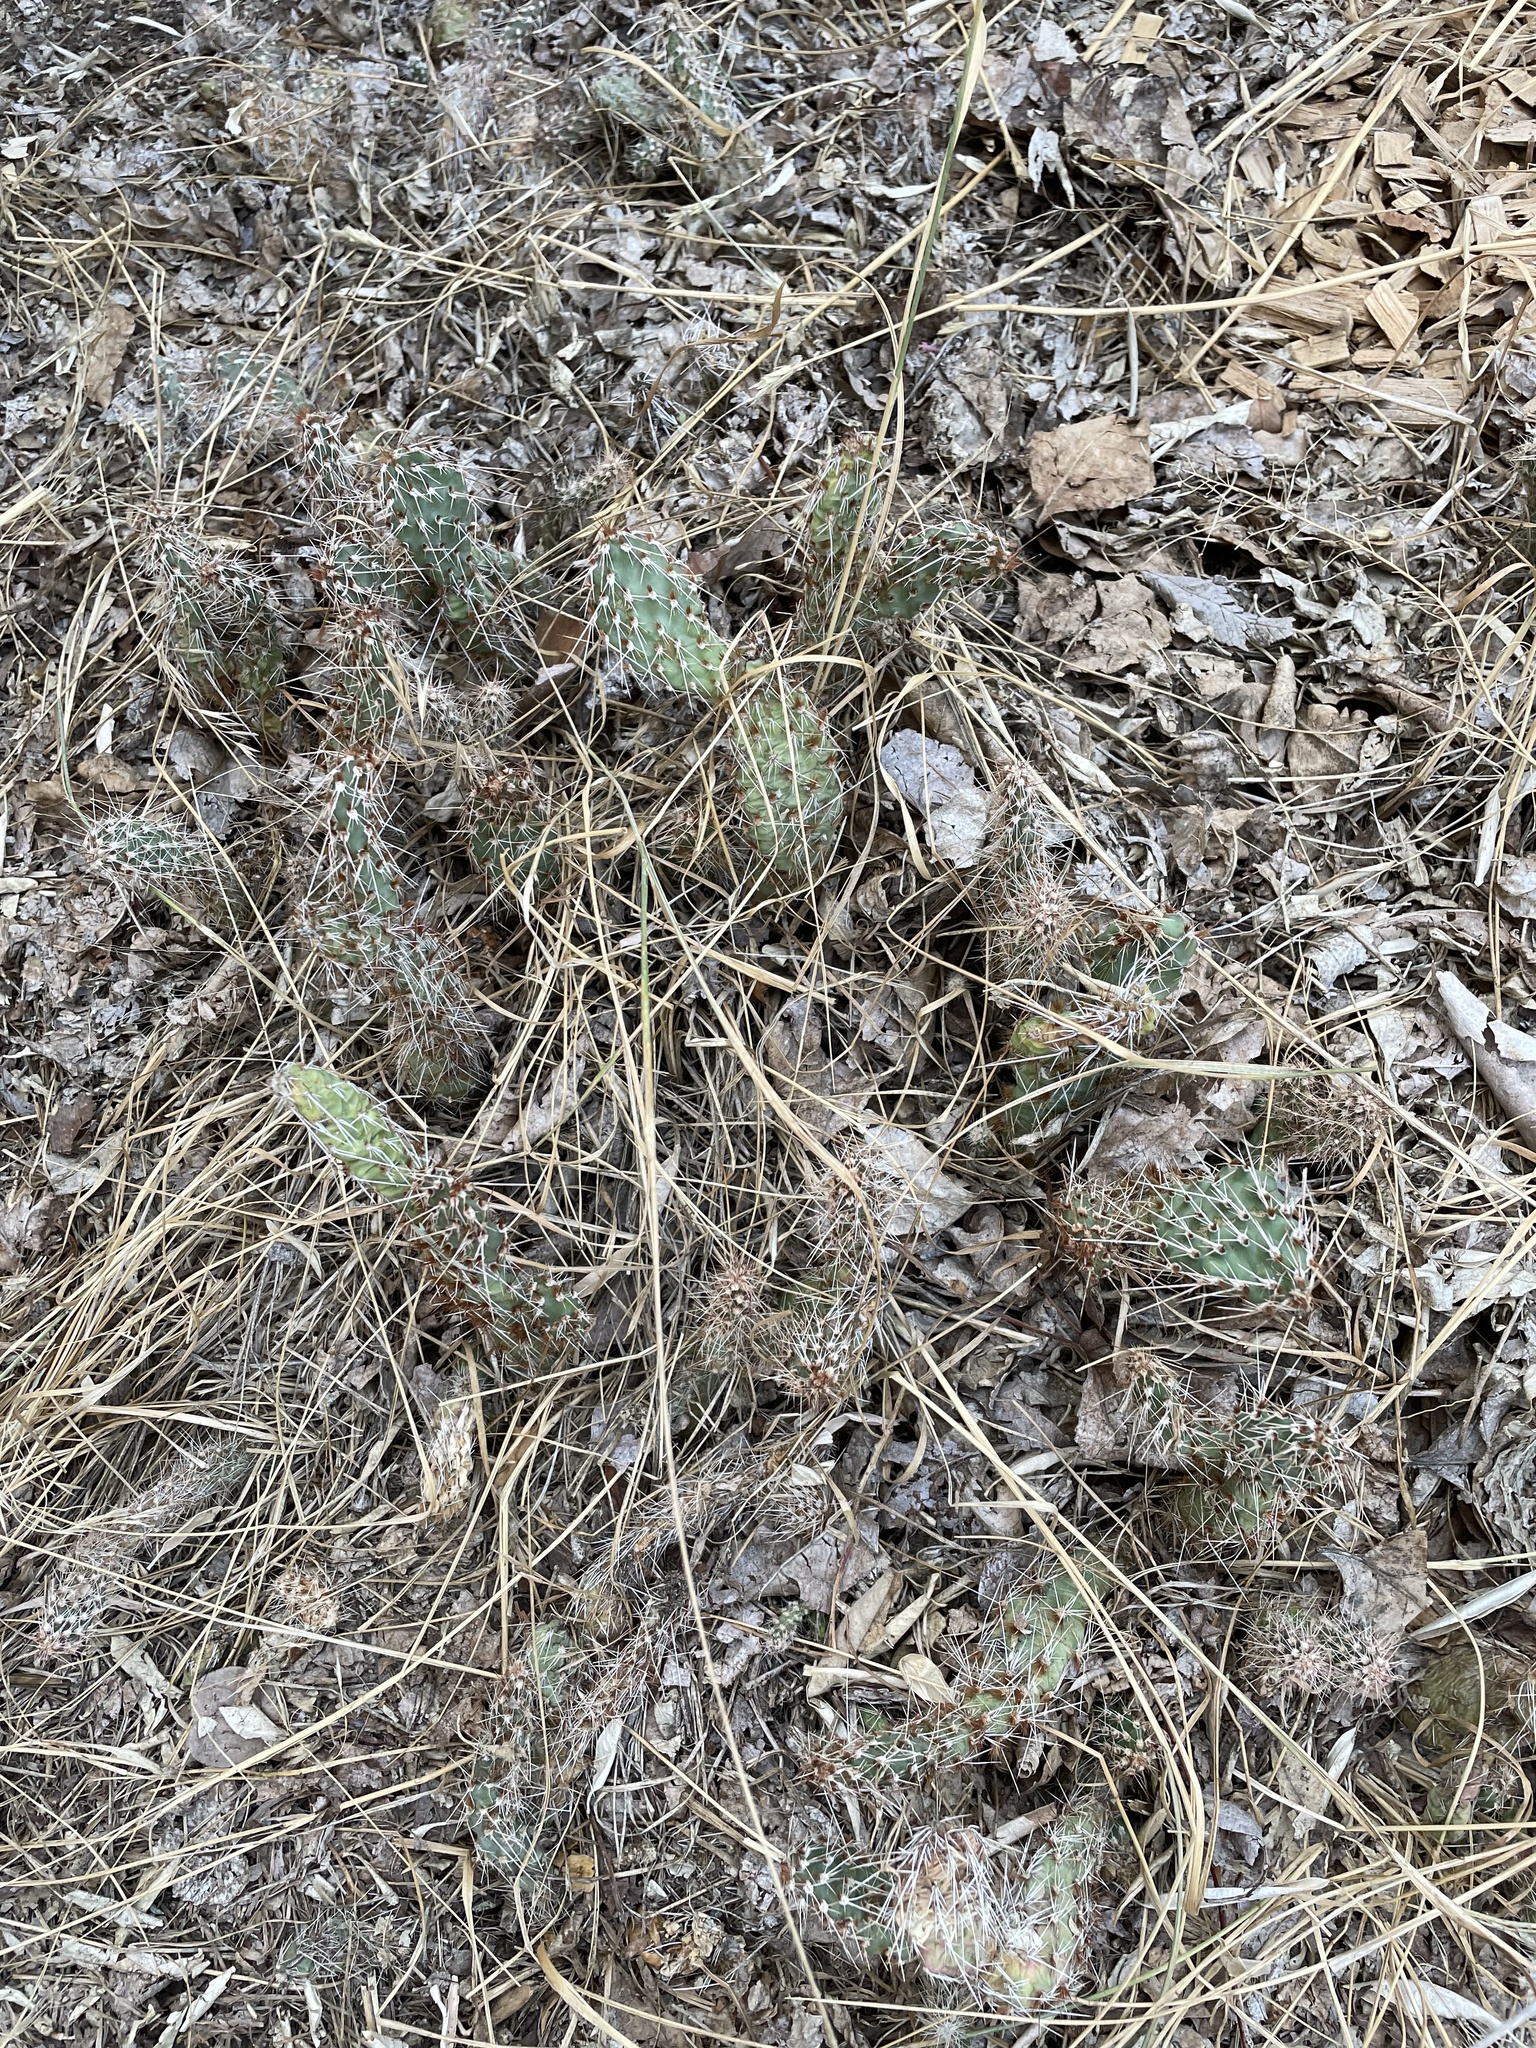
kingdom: Plantae
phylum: Tracheophyta
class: Magnoliopsida
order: Caryophyllales
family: Cactaceae
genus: Opuntia
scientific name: Opuntia polyacantha
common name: Plains prickly-pear
